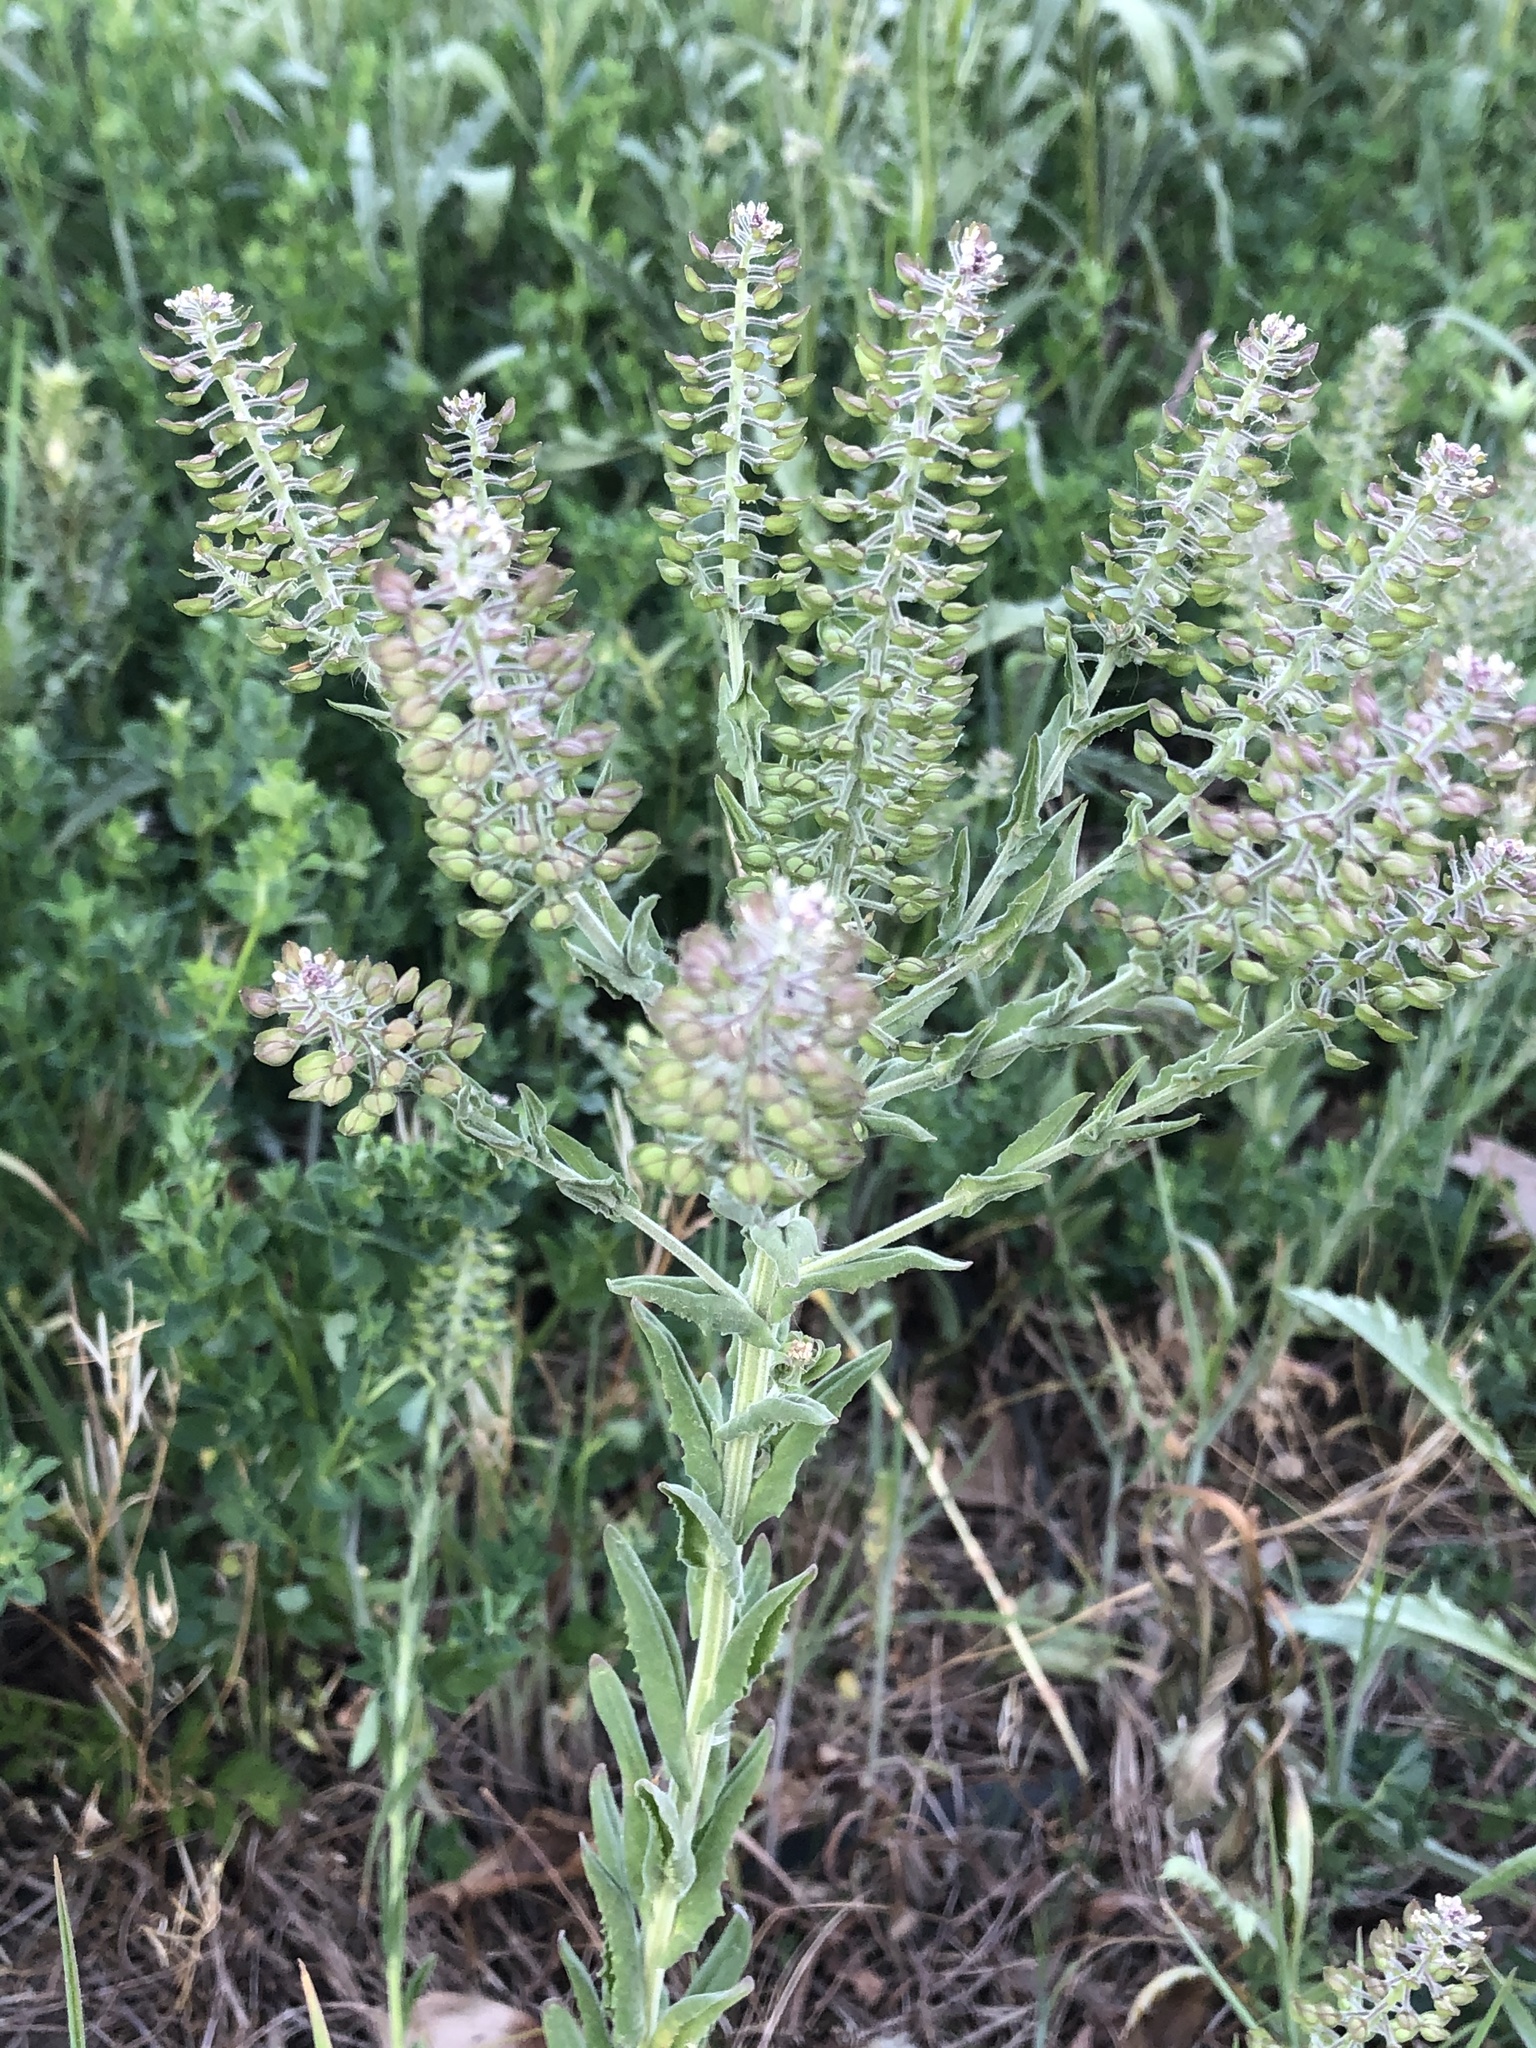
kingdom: Plantae
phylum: Tracheophyta
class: Magnoliopsida
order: Brassicales
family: Brassicaceae
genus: Lepidium
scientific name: Lepidium campestre
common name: Field pepperwort
